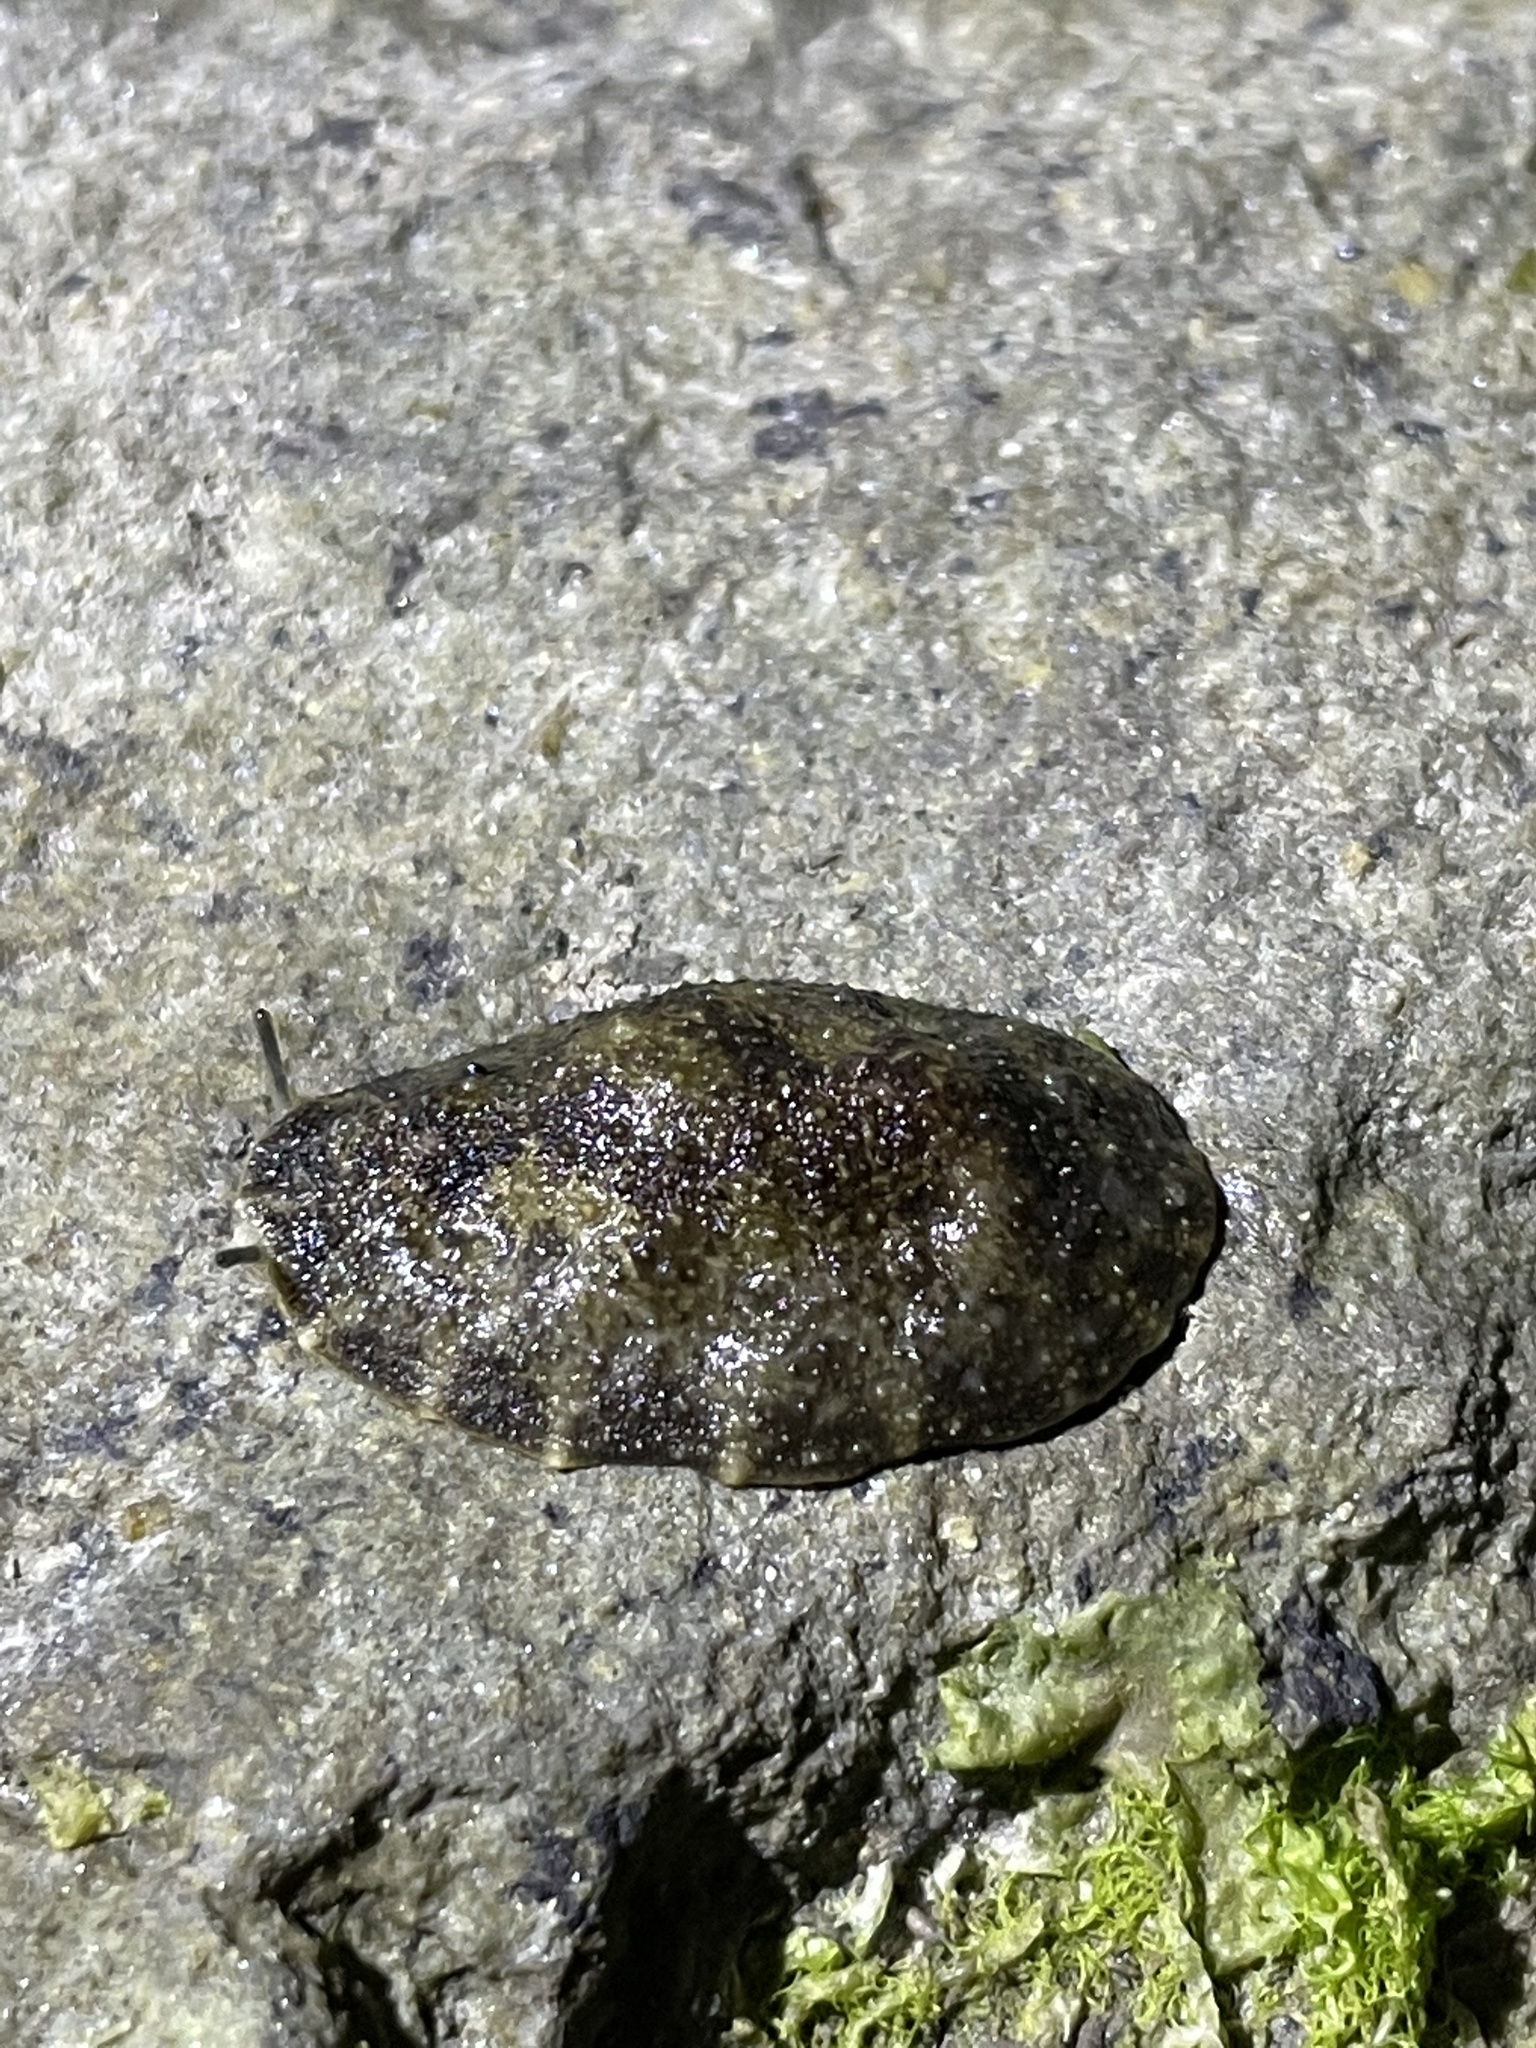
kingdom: Animalia
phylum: Mollusca
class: Gastropoda
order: Systellommatophora
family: Onchidiidae
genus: Onchidella
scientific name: Onchidella nigricans
